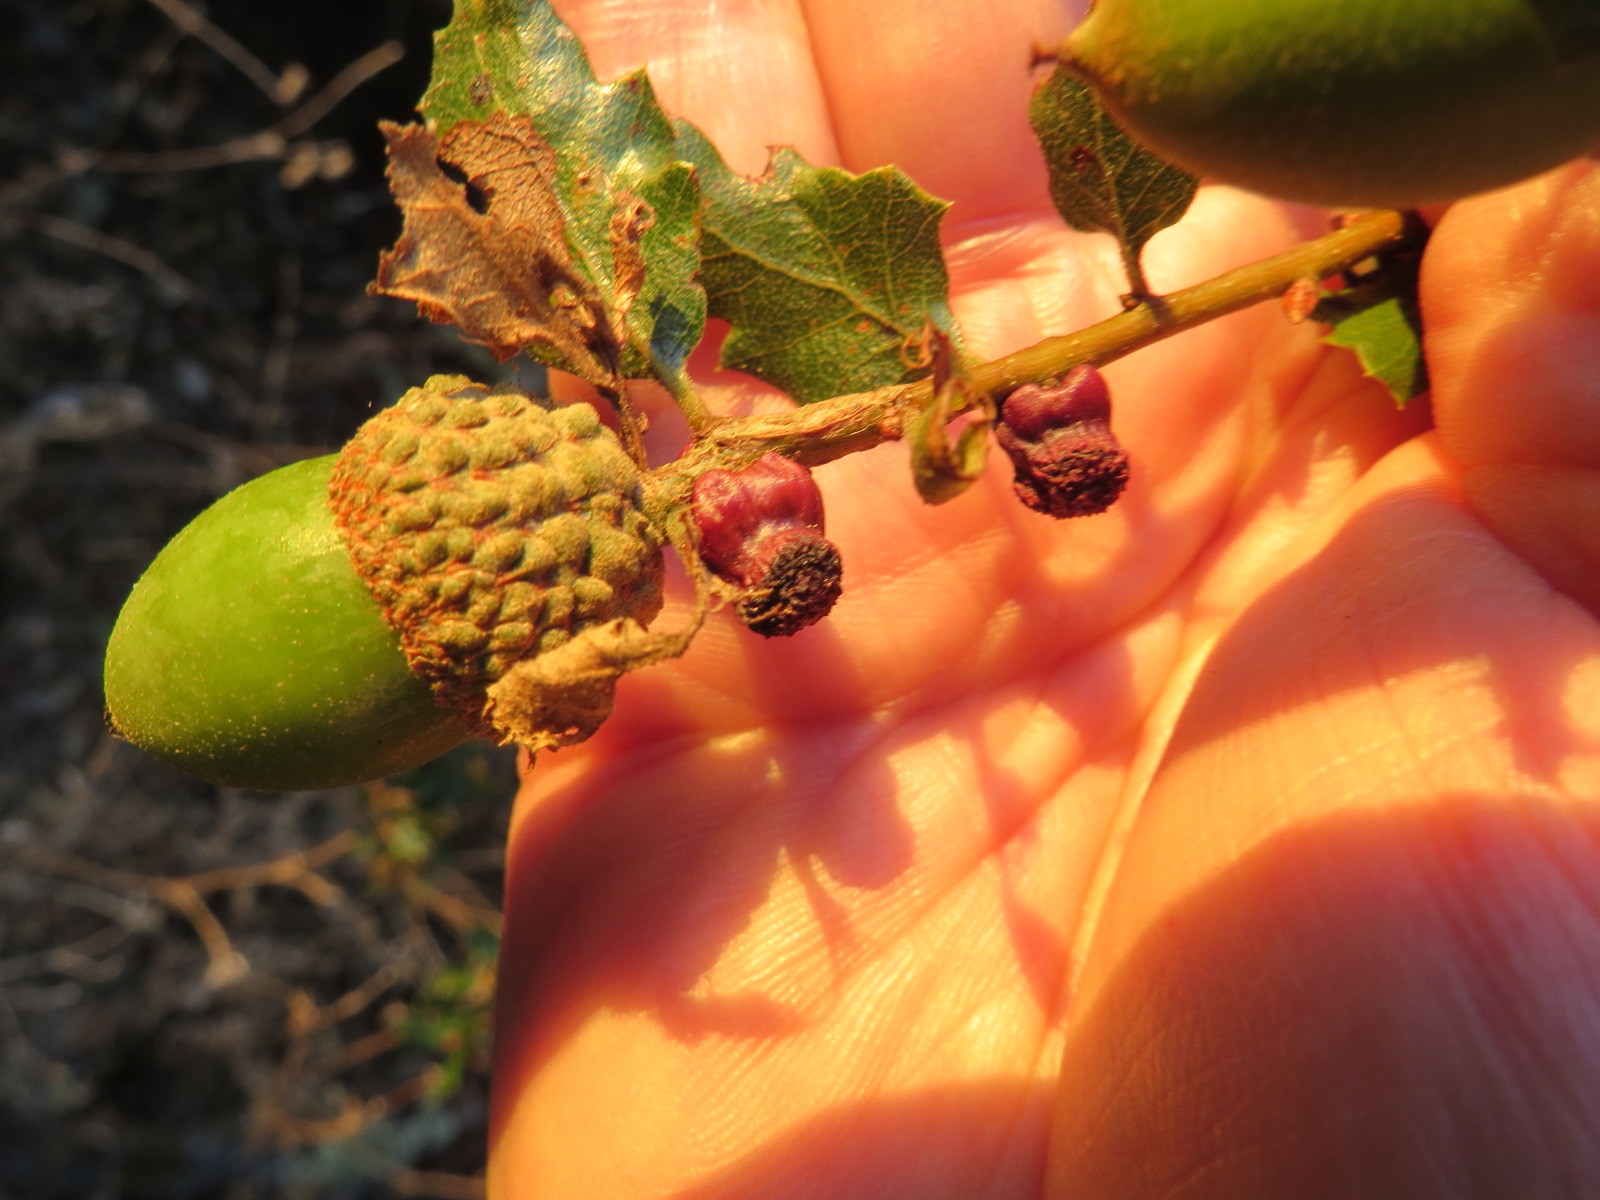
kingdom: Animalia
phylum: Arthropoda
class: Insecta
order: Hymenoptera
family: Cynipidae
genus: Disholcaspis
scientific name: Disholcaspis prehensa
